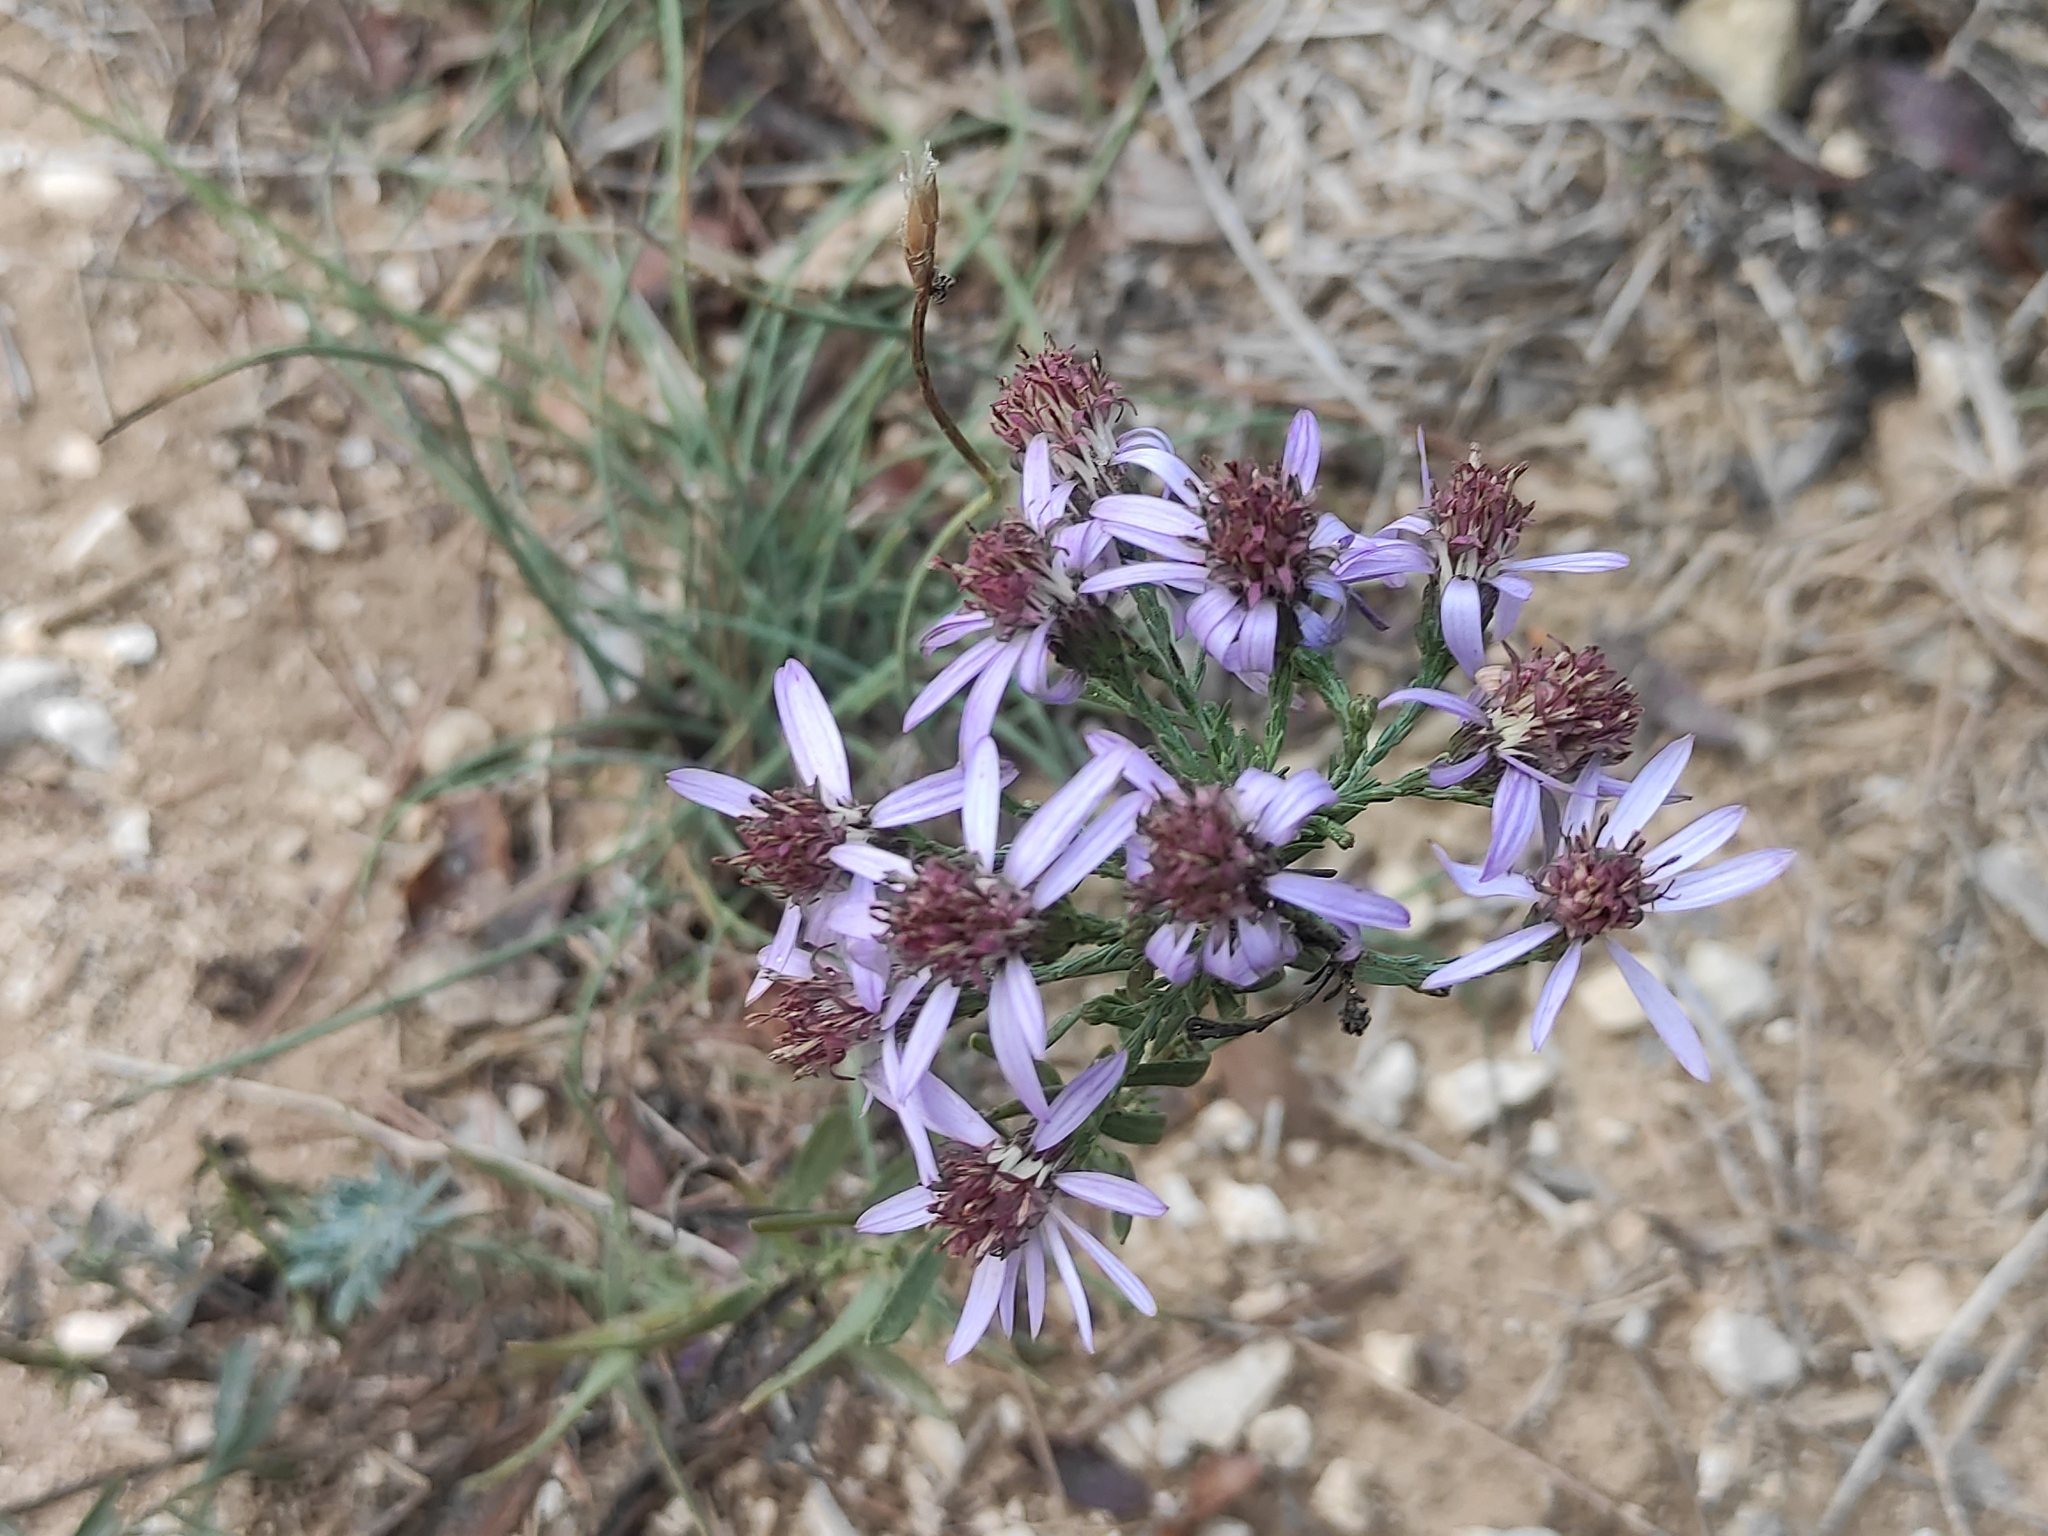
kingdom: Plantae
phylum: Tracheophyta
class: Magnoliopsida
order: Asterales
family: Asteraceae
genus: Galatella
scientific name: Galatella sedifolia
